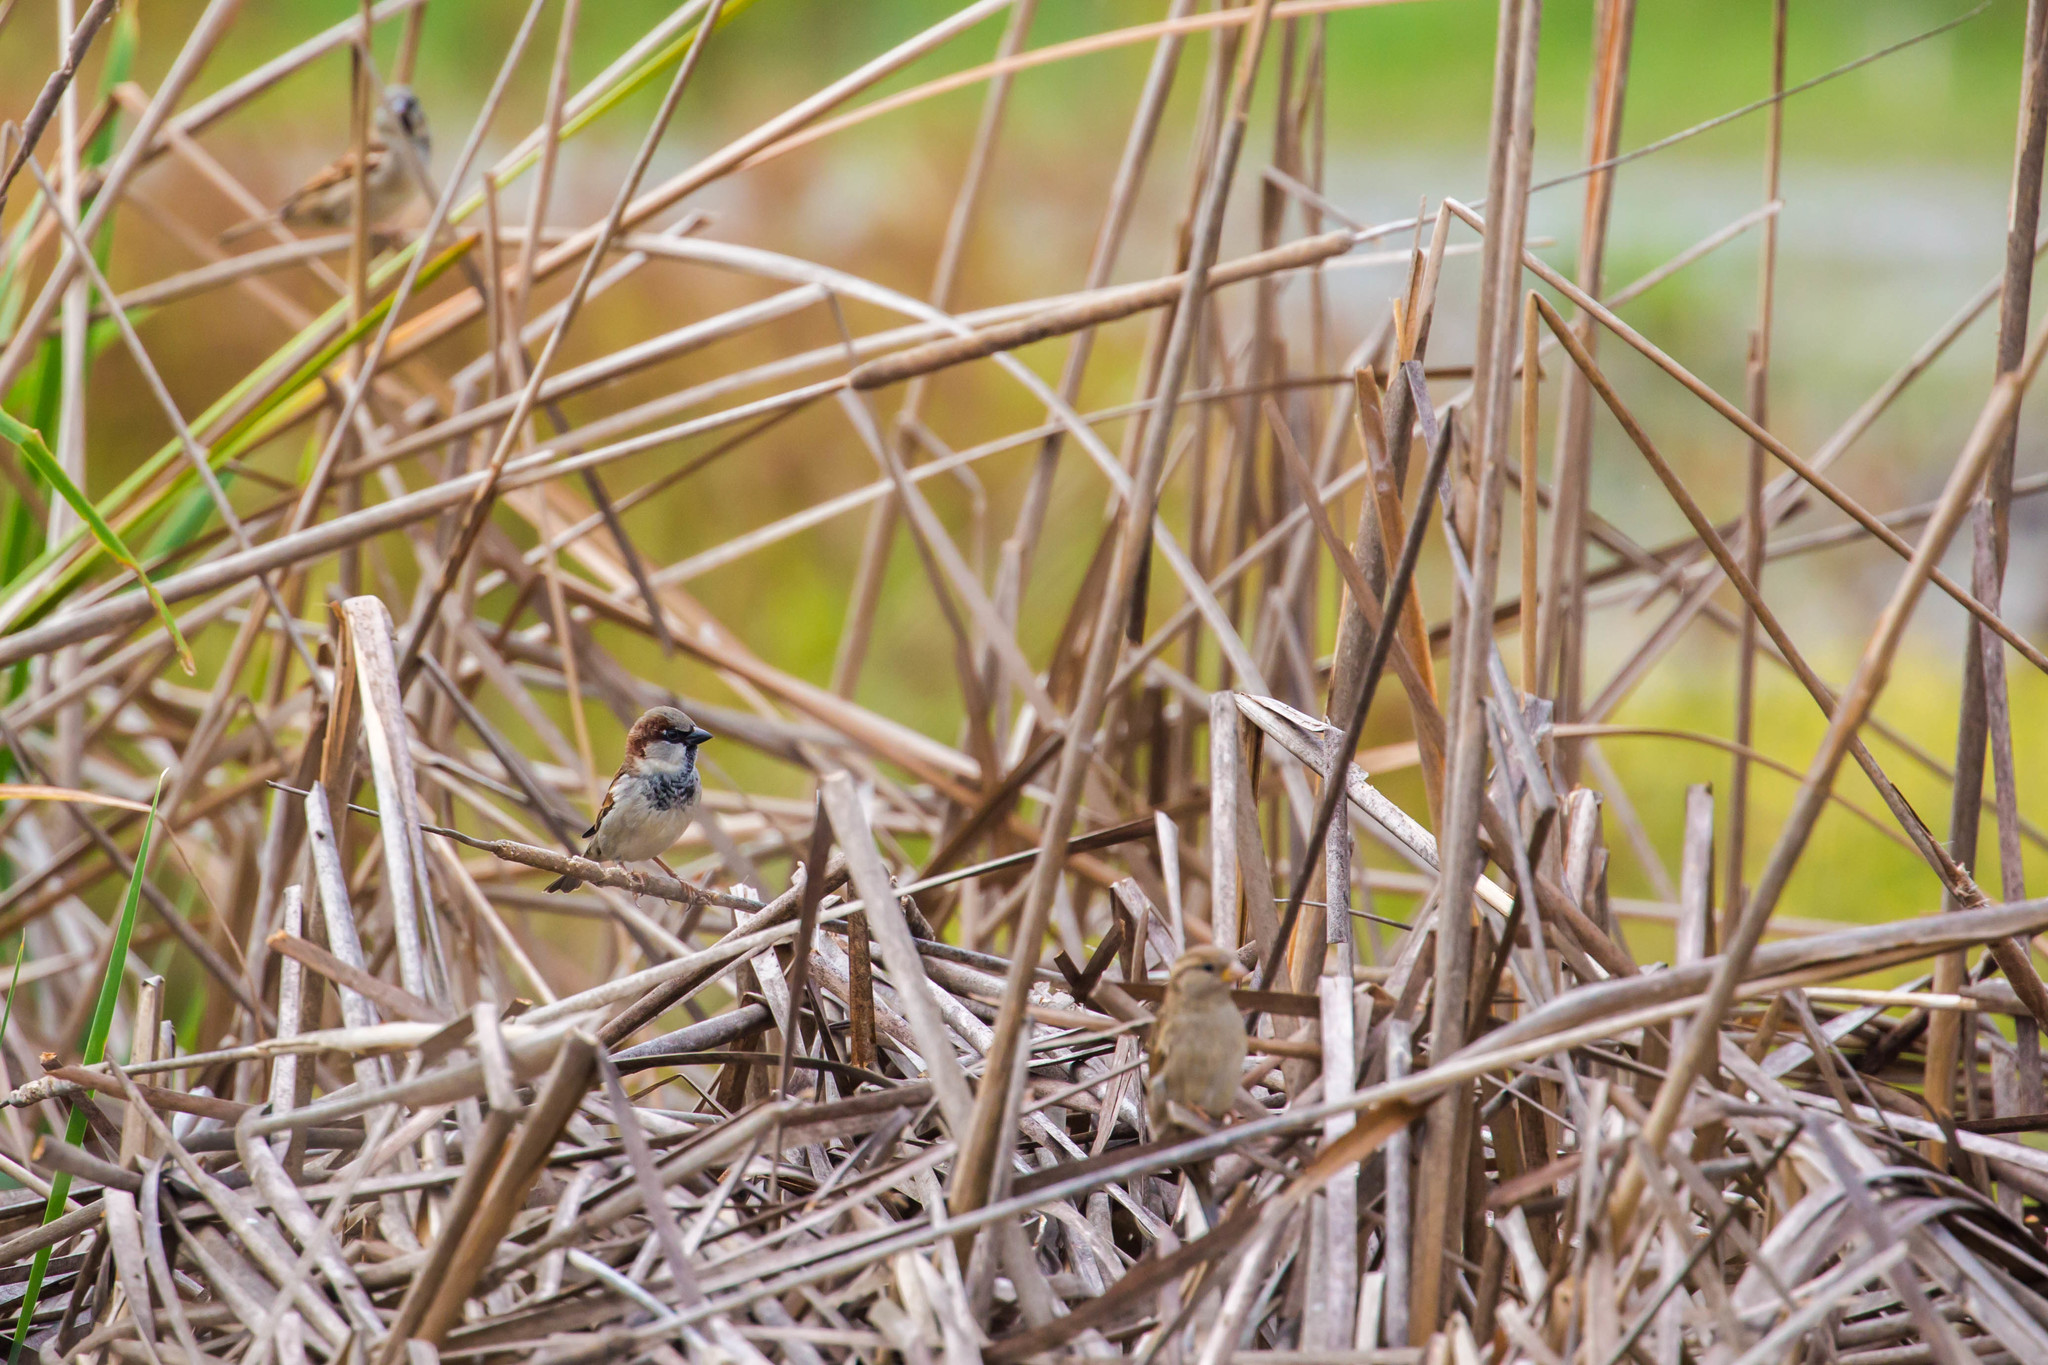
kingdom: Animalia
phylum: Chordata
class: Aves
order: Passeriformes
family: Passeridae
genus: Passer
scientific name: Passer domesticus
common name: House sparrow
